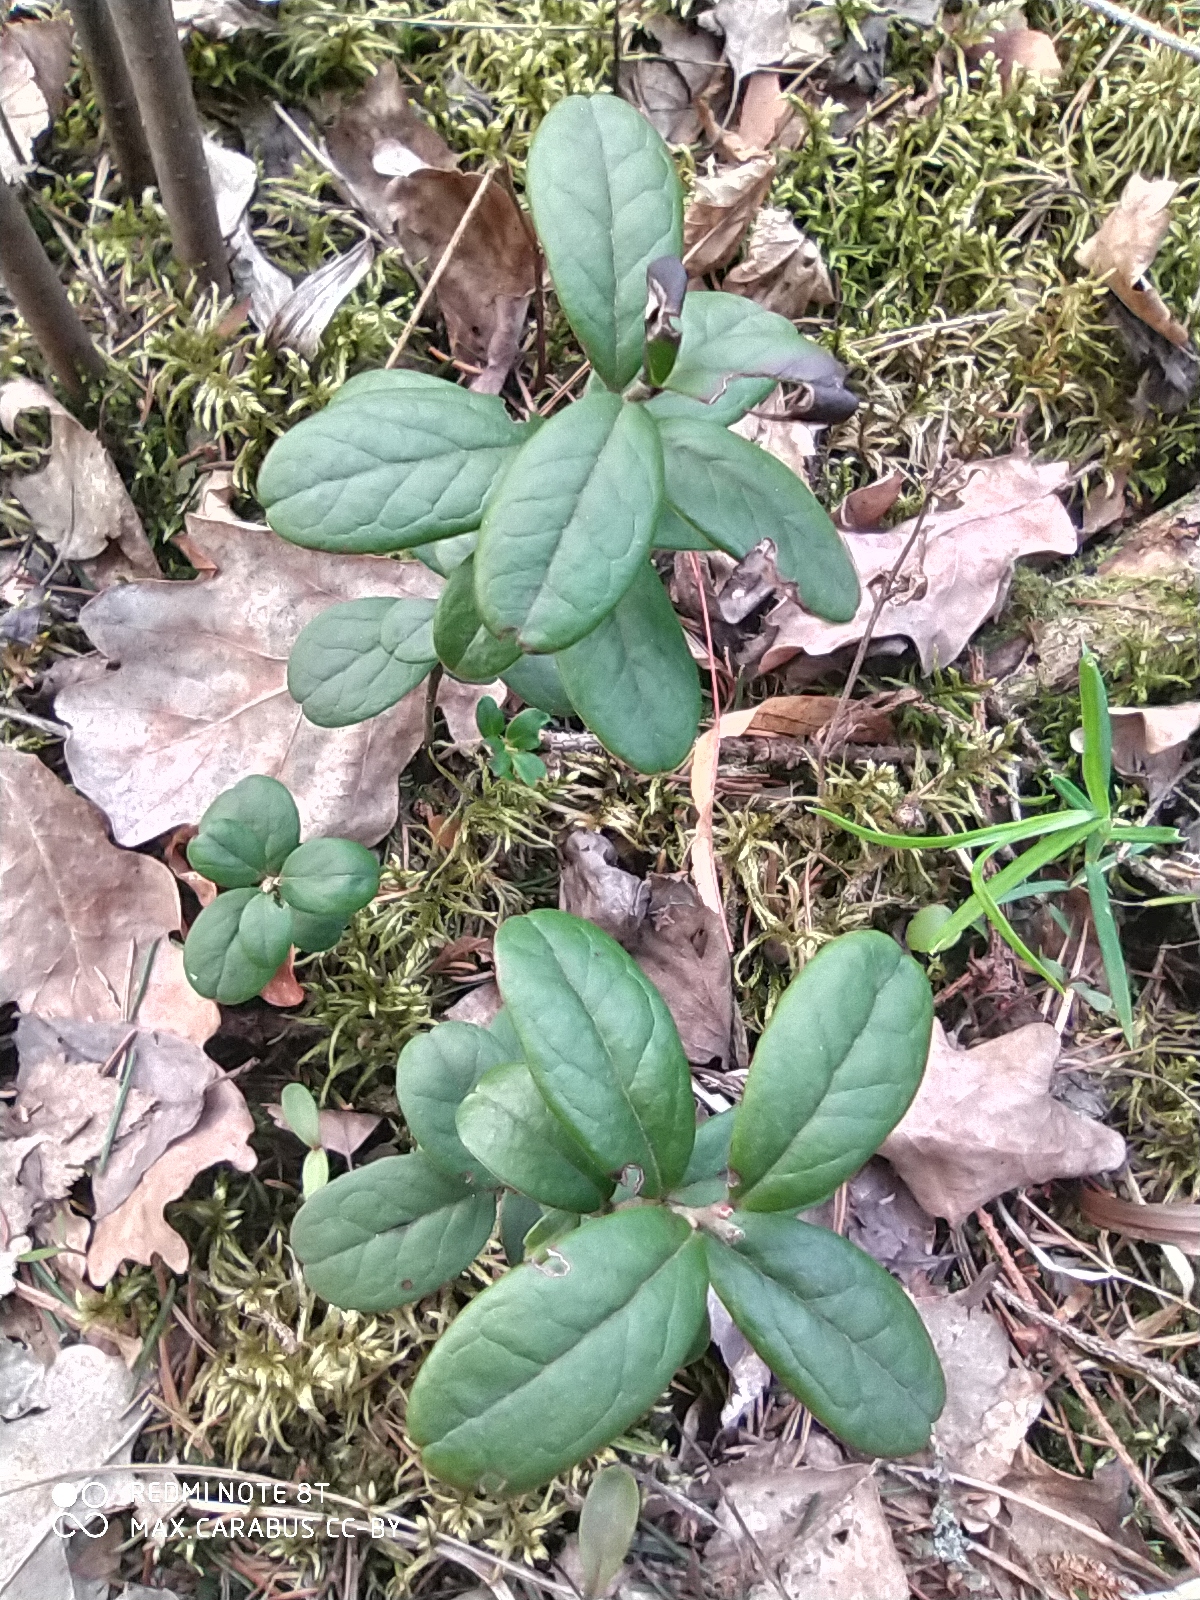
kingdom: Plantae
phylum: Tracheophyta
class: Magnoliopsida
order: Ericales
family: Ericaceae
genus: Vaccinium
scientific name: Vaccinium vitis-idaea
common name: Cowberry
